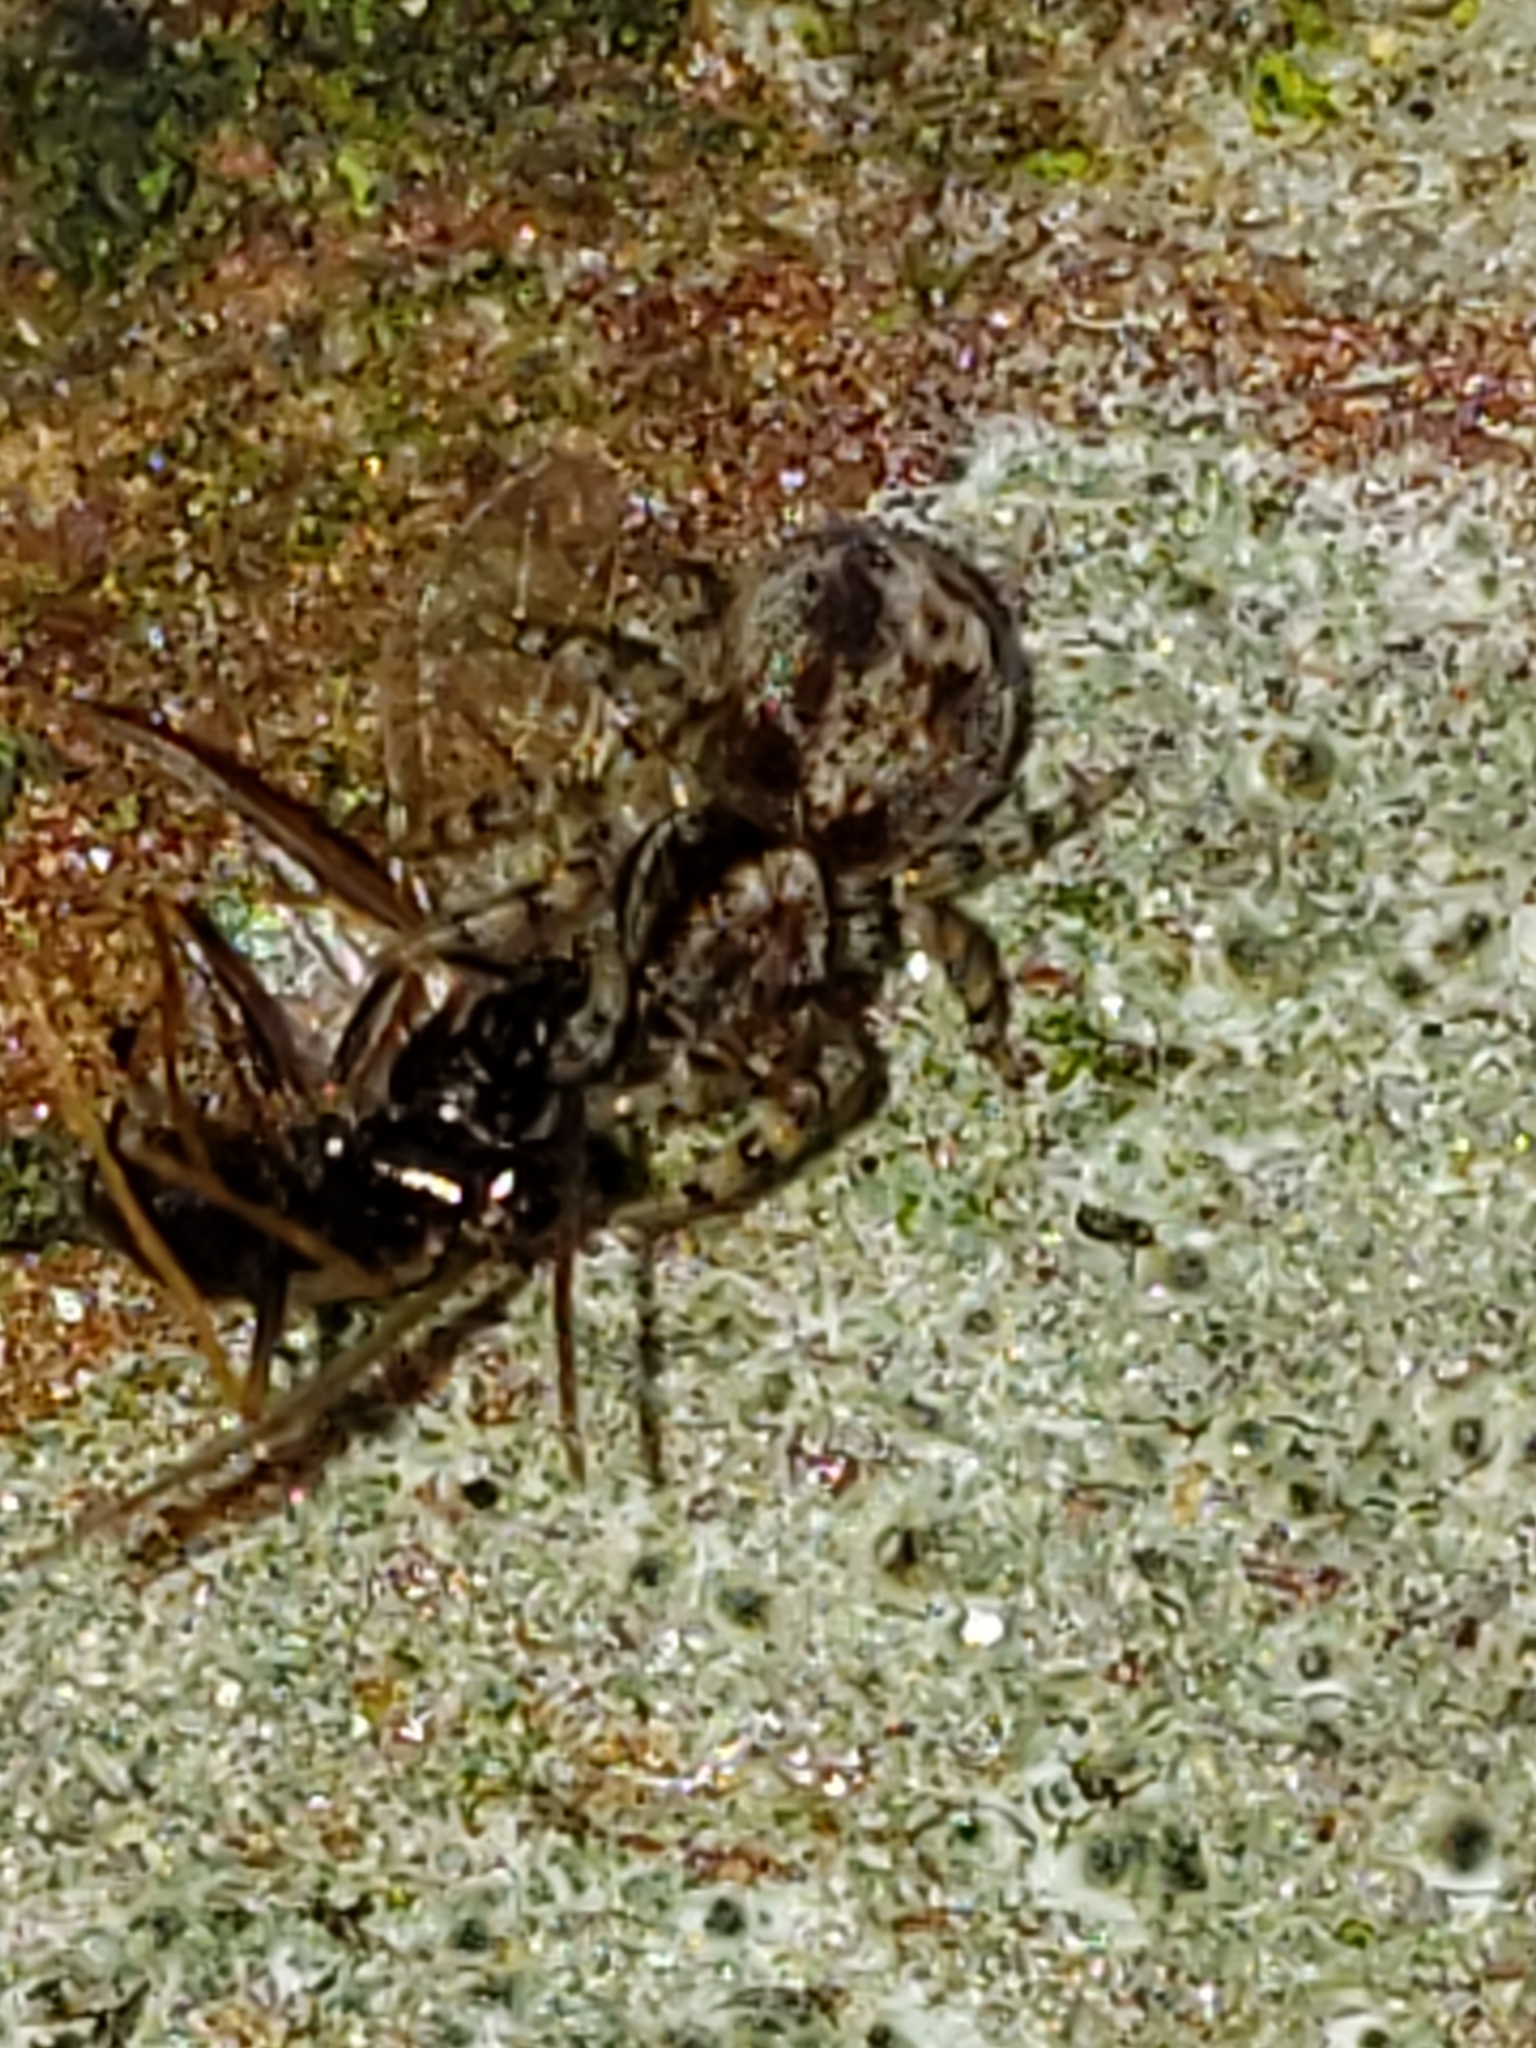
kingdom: Animalia
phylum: Arthropoda
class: Insecta
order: Hymenoptera
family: Formicidae
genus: Prenolepis
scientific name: Prenolepis imparis
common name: Small honey ant
